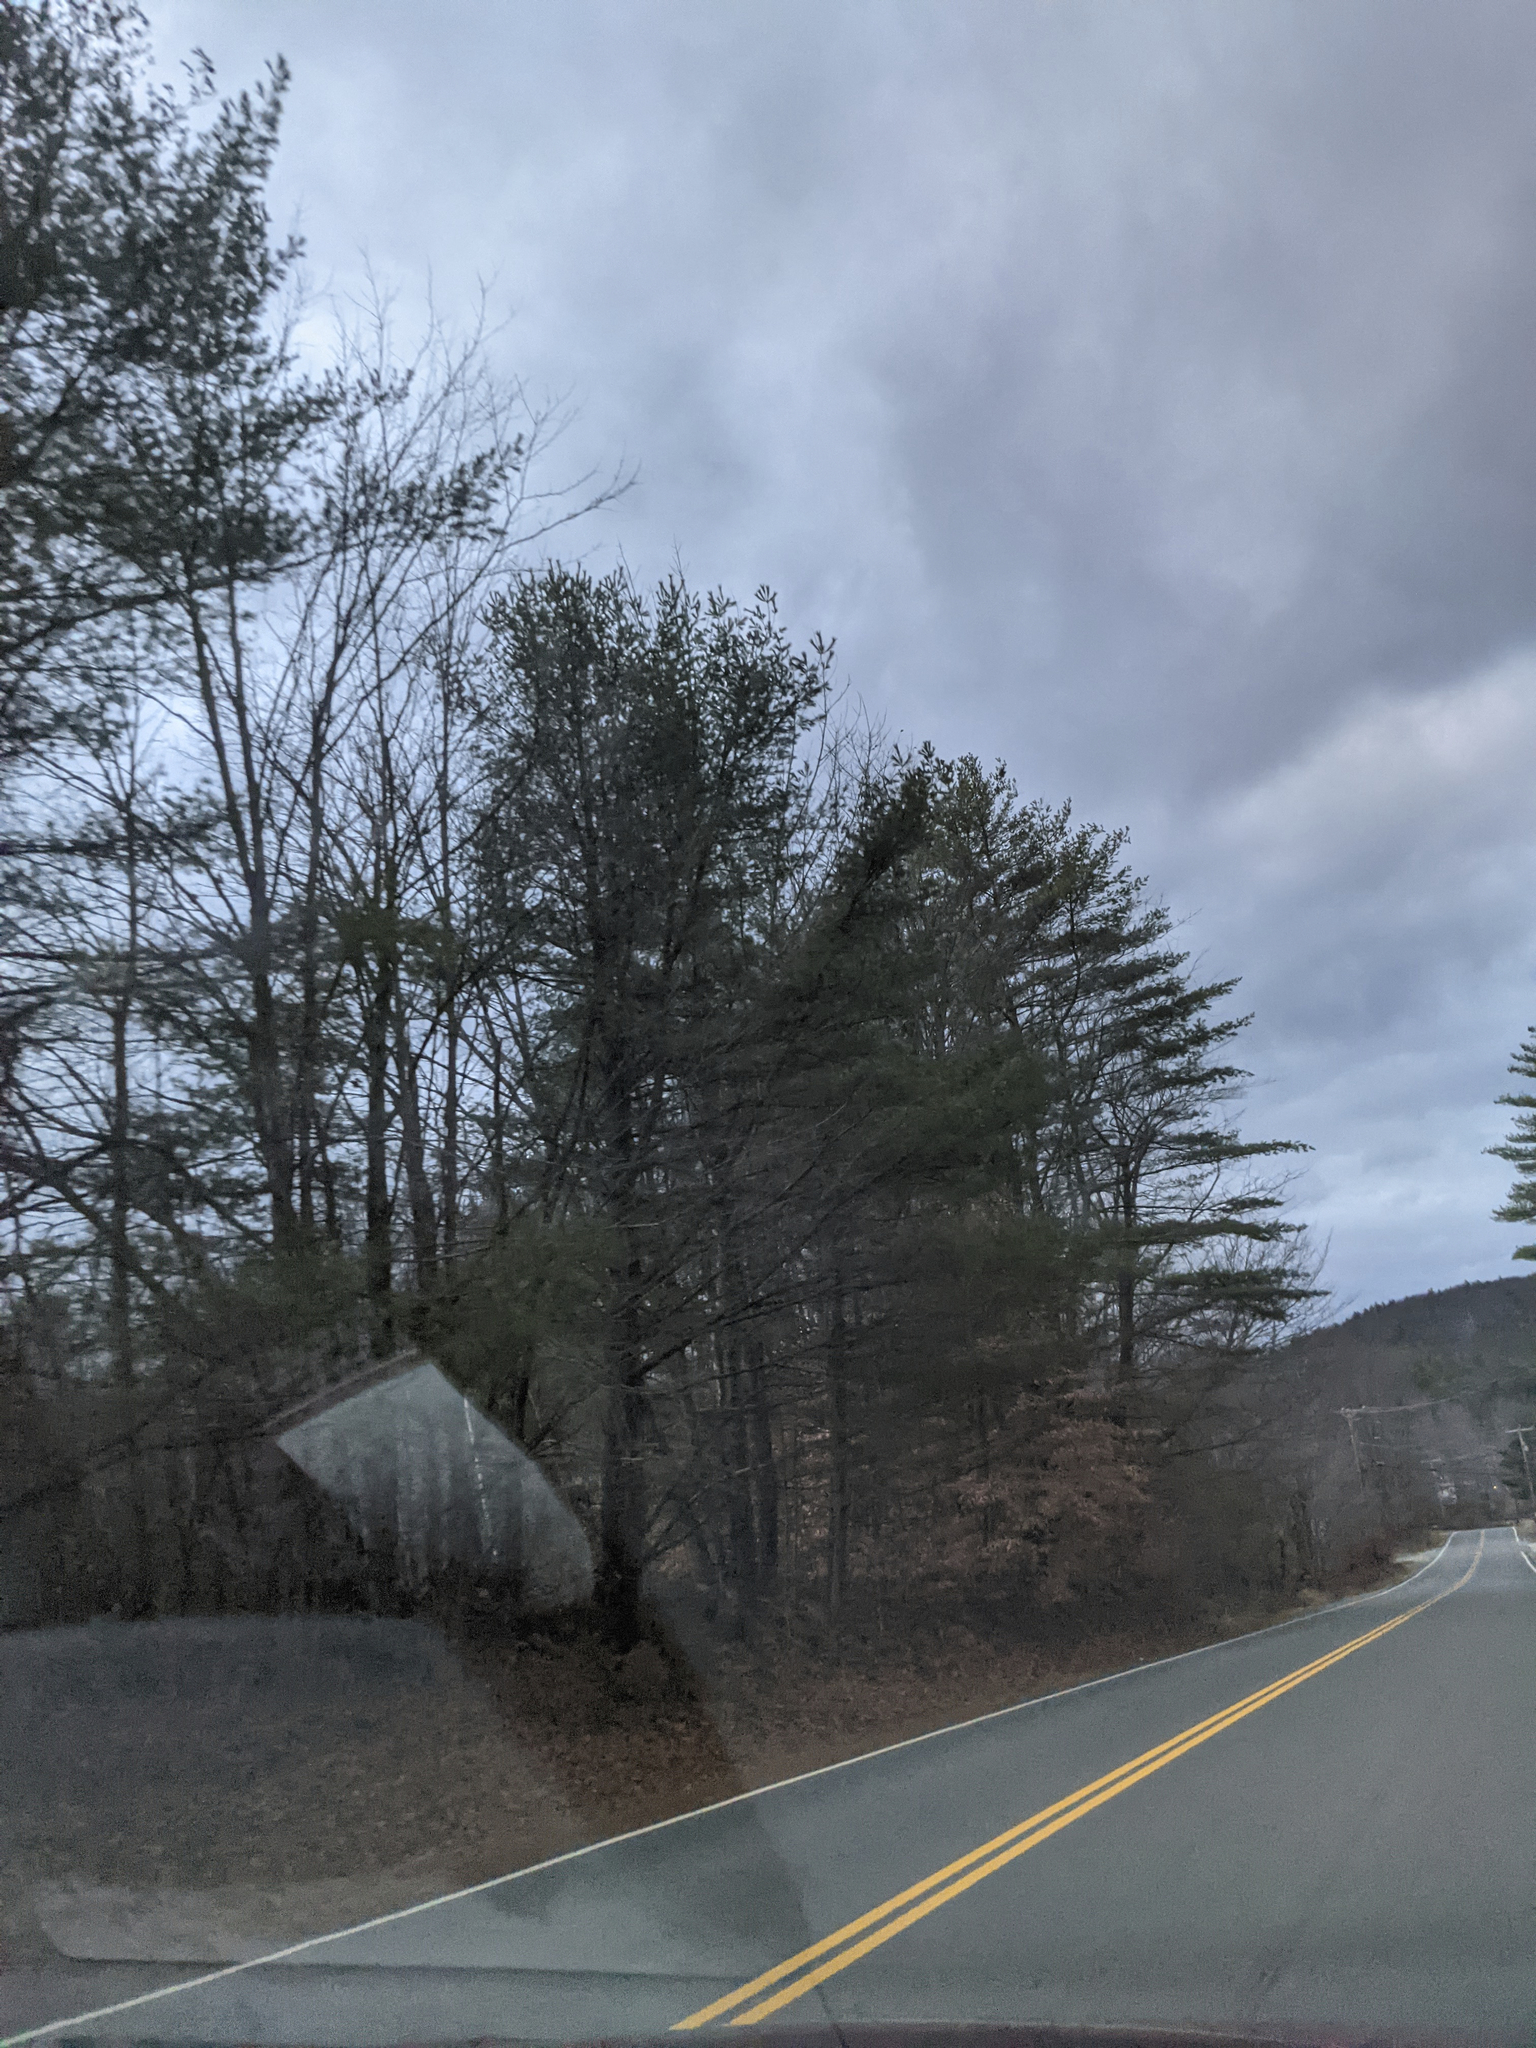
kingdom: Plantae
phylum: Tracheophyta
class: Pinopsida
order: Pinales
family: Pinaceae
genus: Pinus
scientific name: Pinus strobus
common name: Weymouth pine
